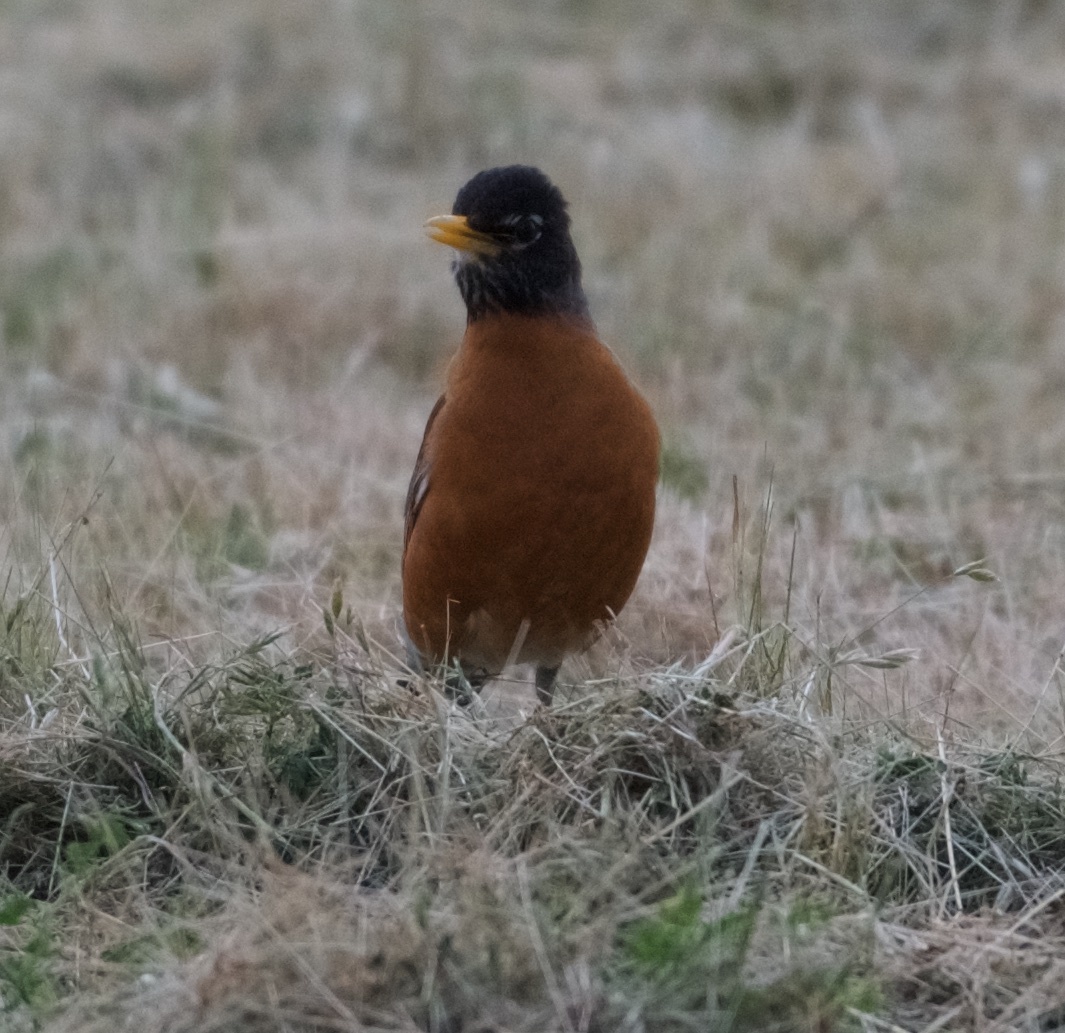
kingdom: Animalia
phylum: Chordata
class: Aves
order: Passeriformes
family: Turdidae
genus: Turdus
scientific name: Turdus migratorius
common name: American robin
